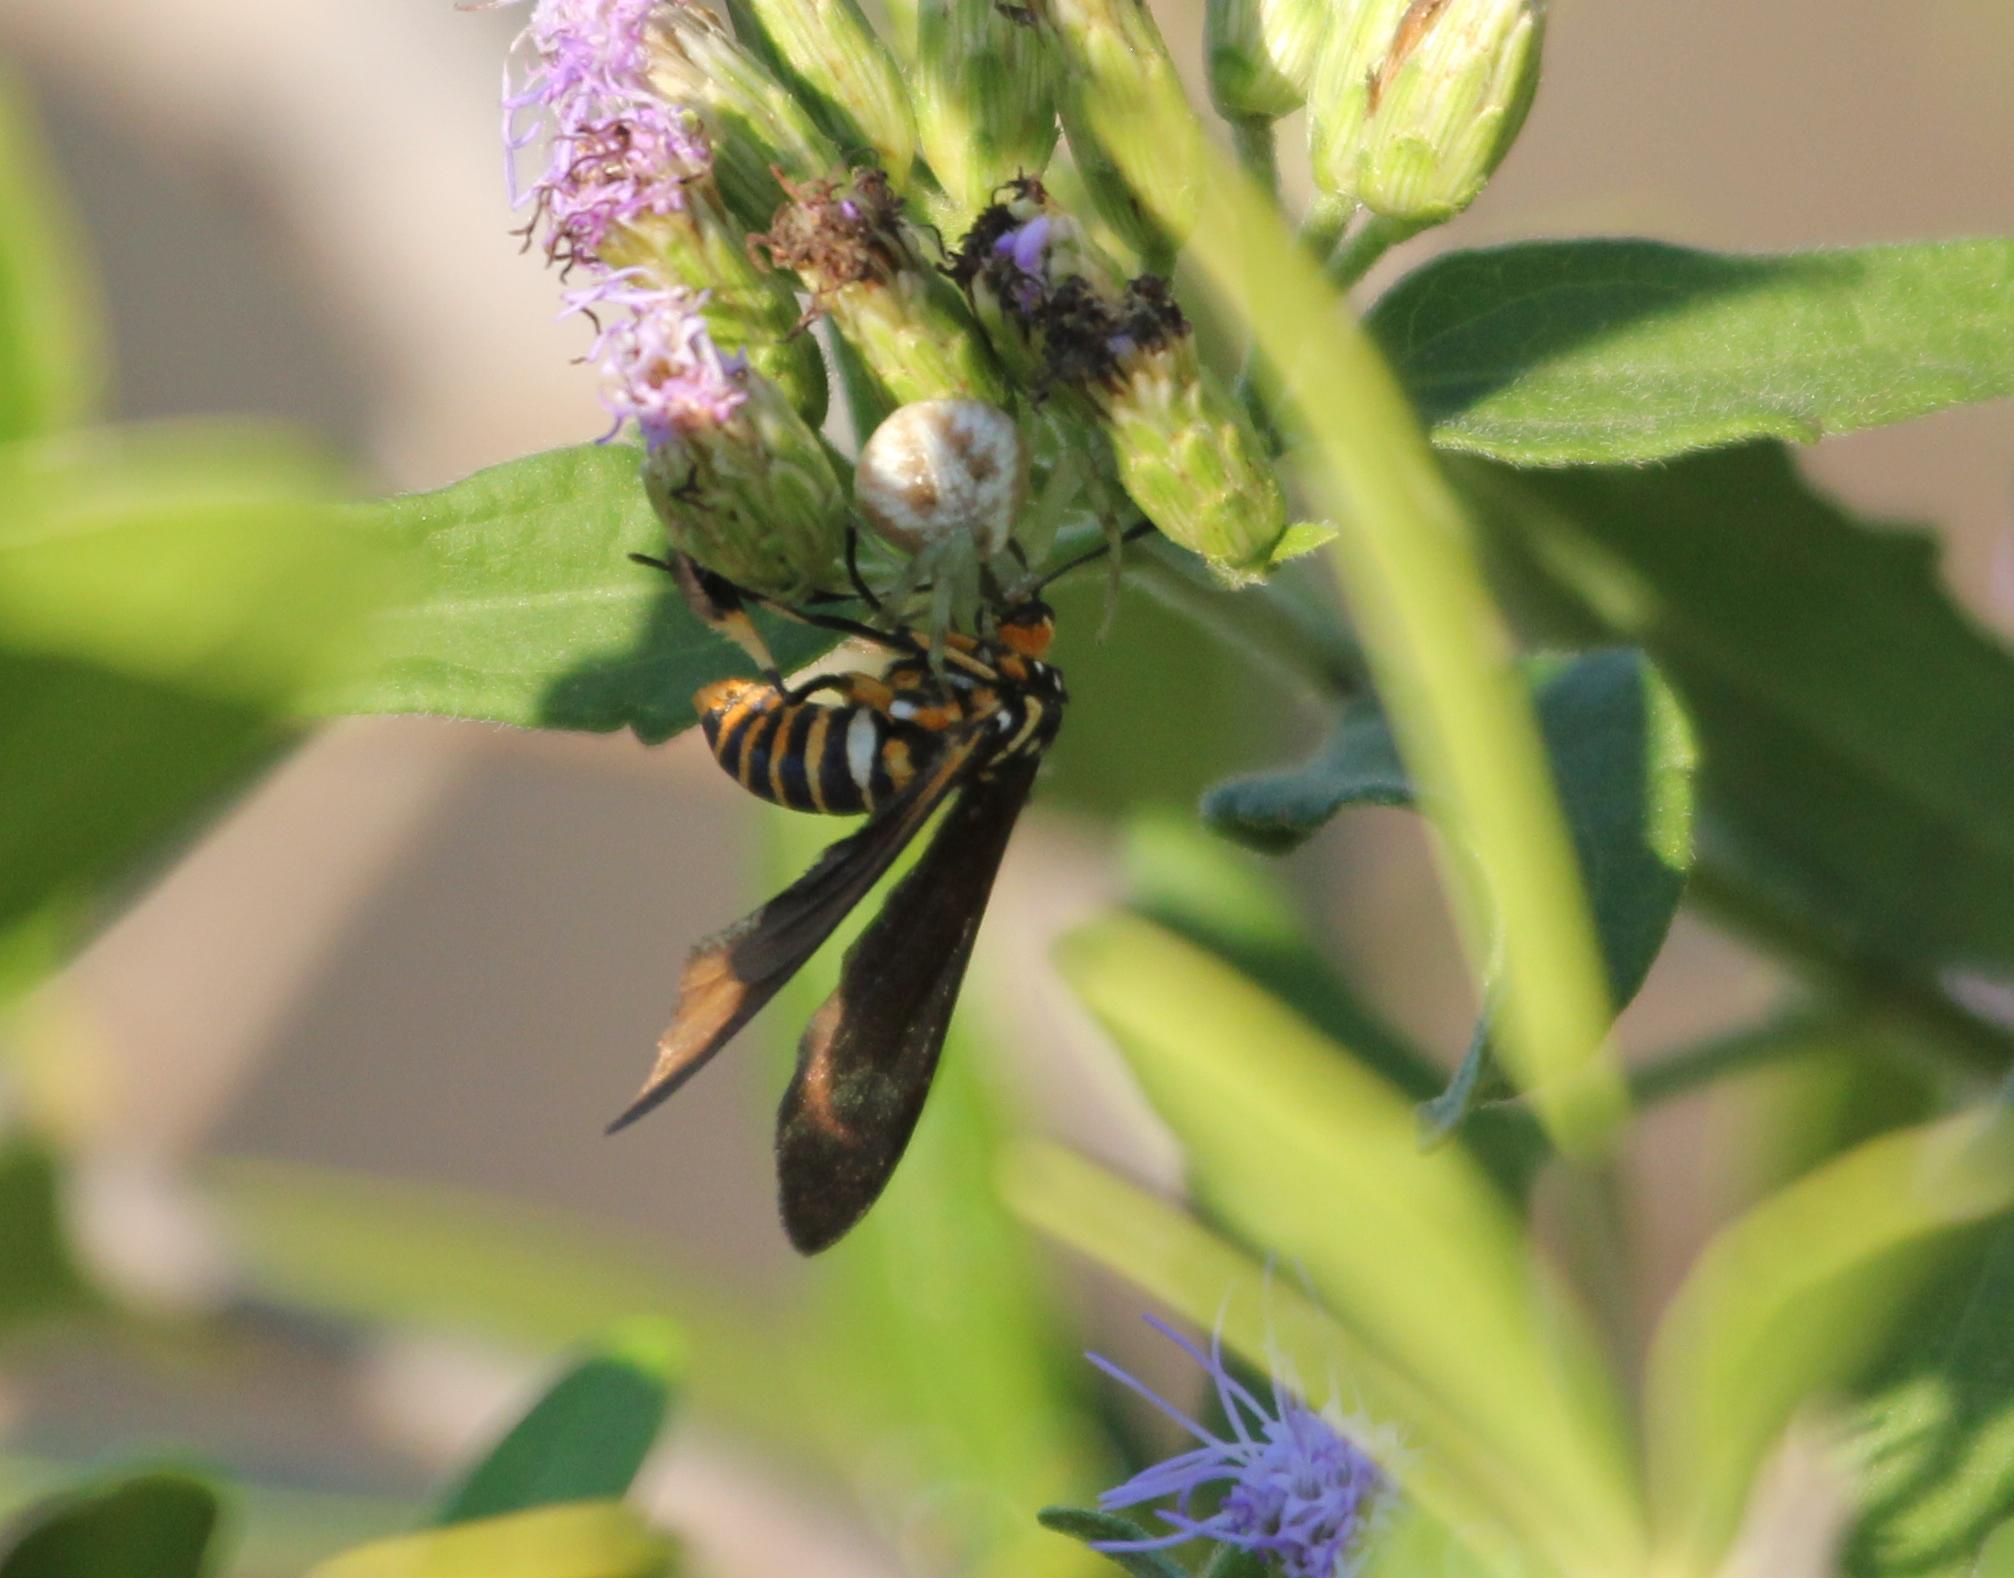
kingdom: Animalia
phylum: Arthropoda
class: Insecta
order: Lepidoptera
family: Erebidae
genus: Horama
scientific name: Horama panthalon
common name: Texas wasp moth
